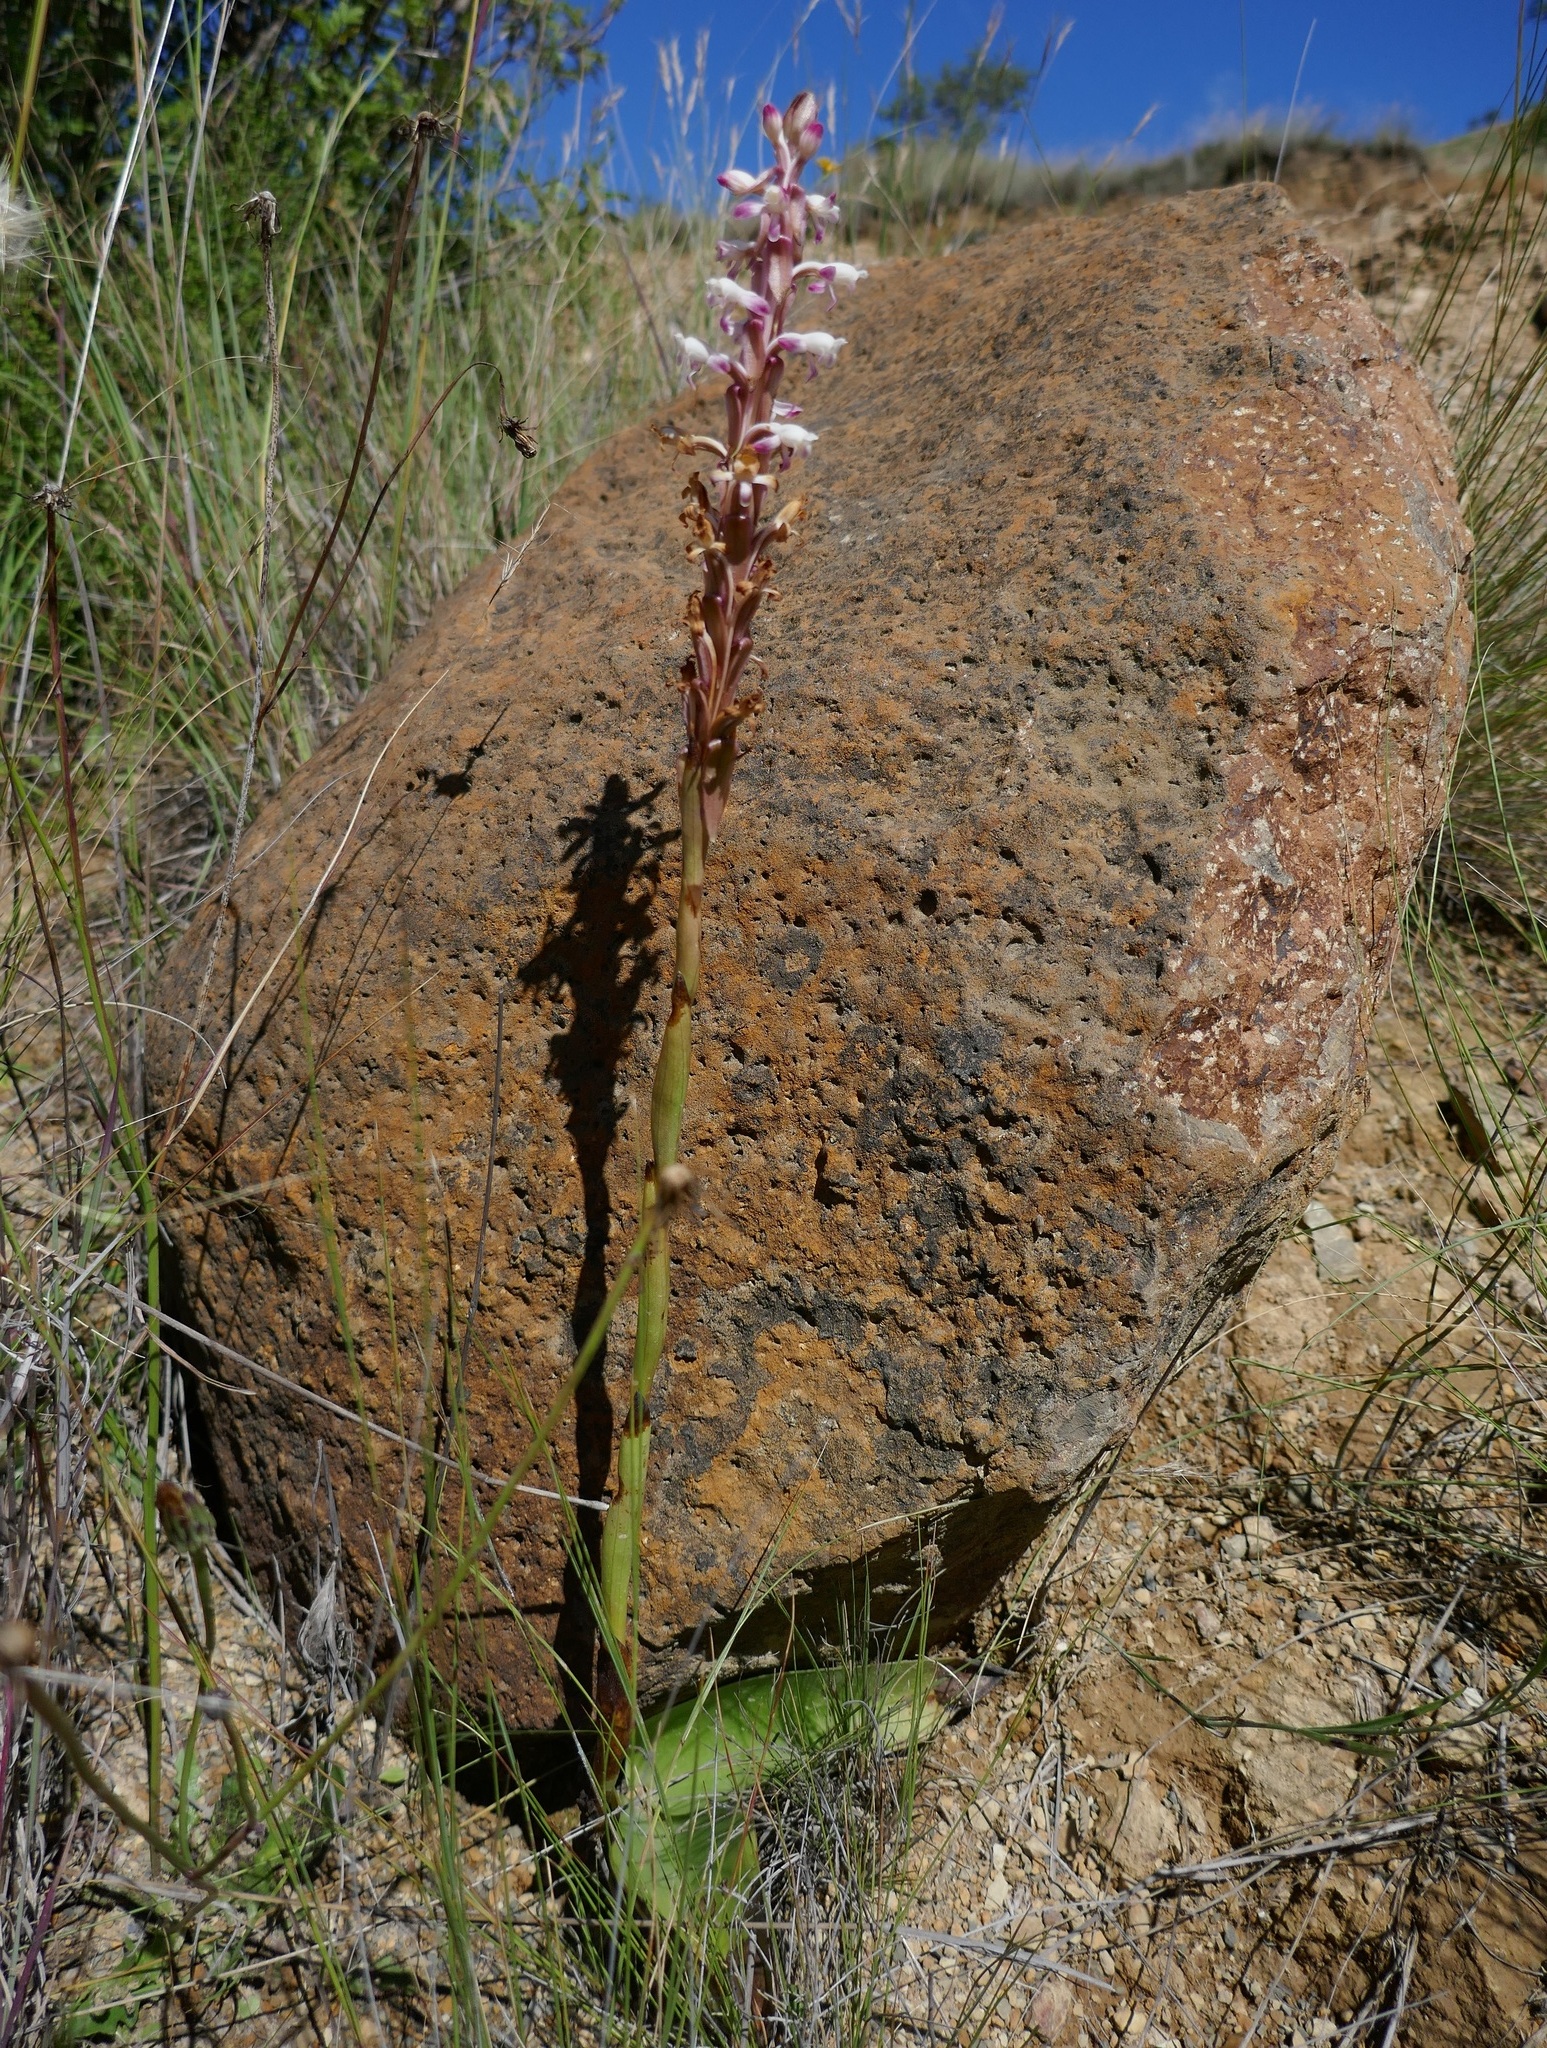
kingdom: Plantae
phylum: Tracheophyta
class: Liliopsida
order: Asparagales
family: Orchidaceae
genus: Satyrium
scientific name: Satyrium longicauda
